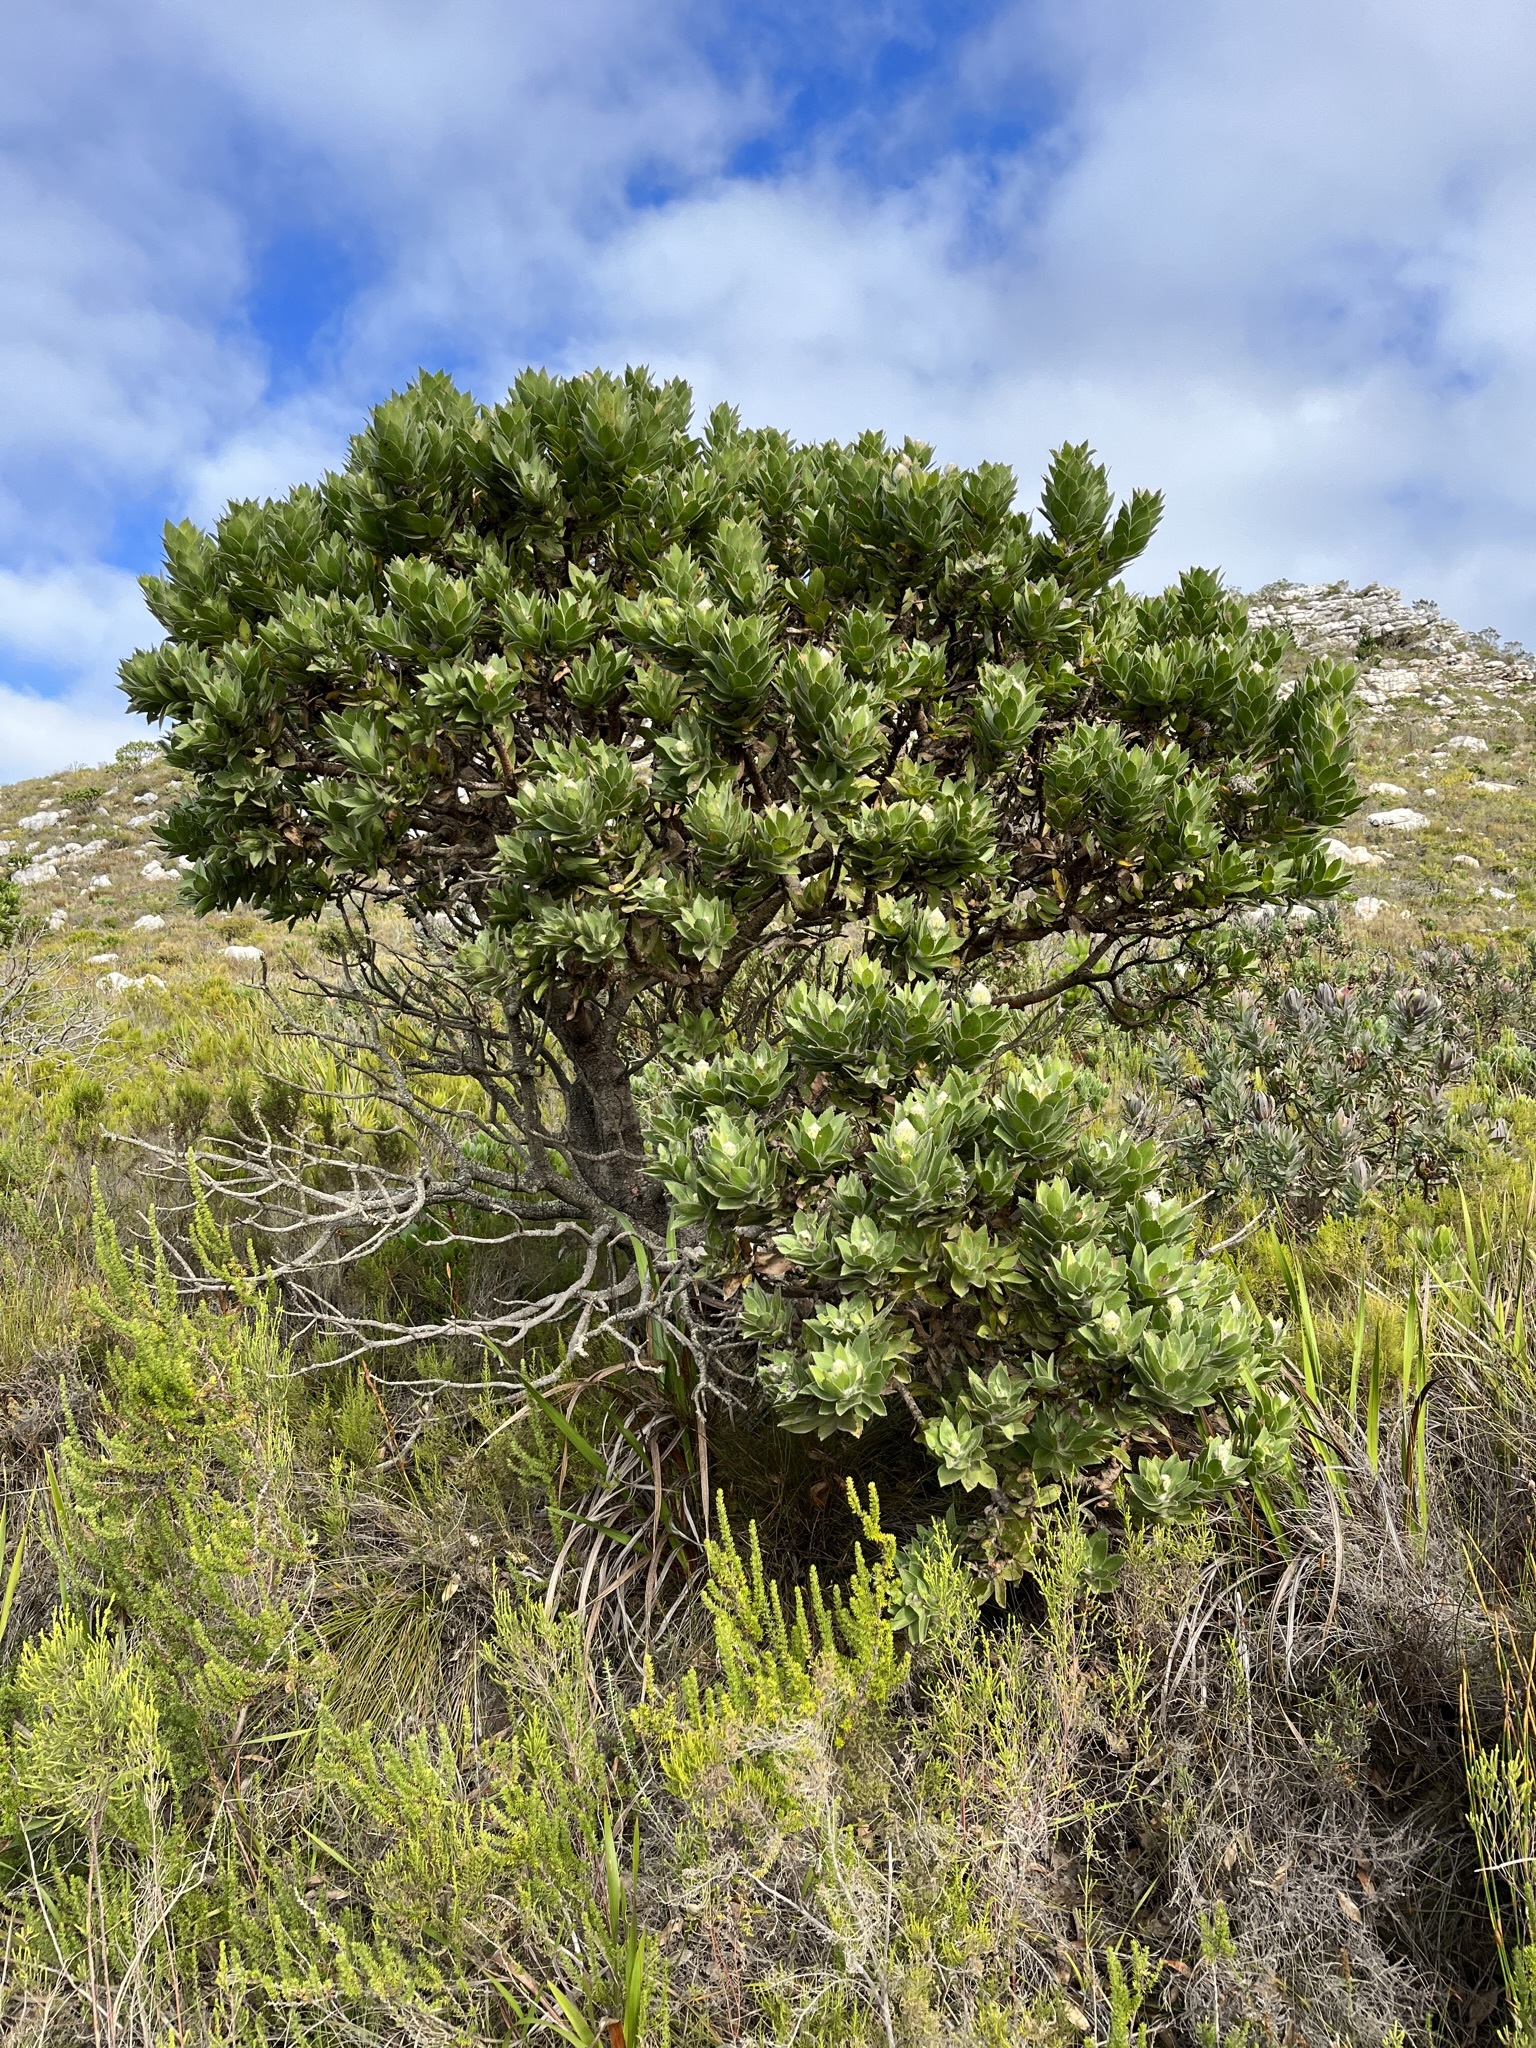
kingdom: Plantae
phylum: Tracheophyta
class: Magnoliopsida
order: Proteales
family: Proteaceae
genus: Leucospermum
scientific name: Leucospermum conocarpodendron
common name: Tree pincushion
